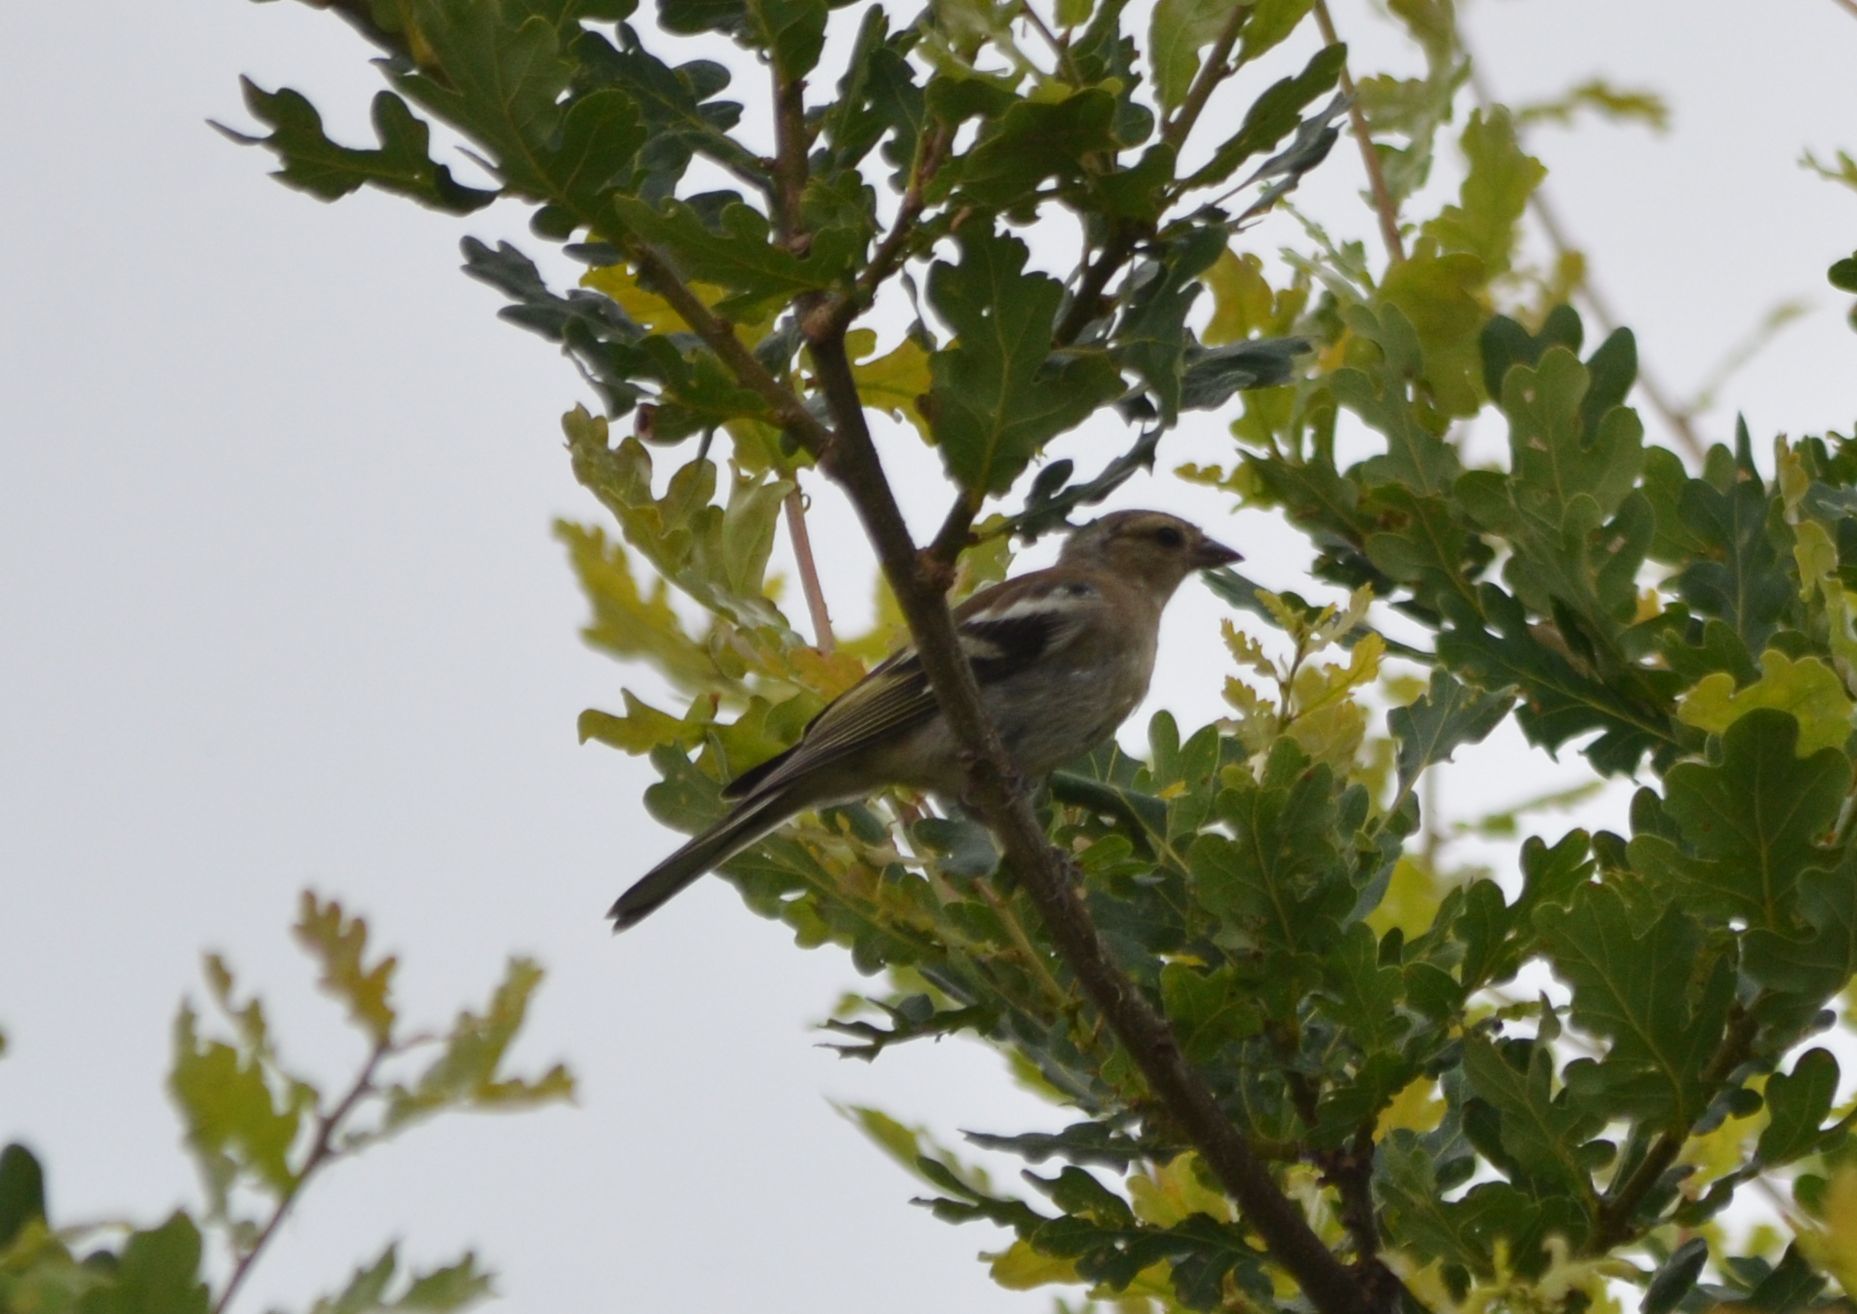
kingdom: Animalia
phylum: Chordata
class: Aves
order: Passeriformes
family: Fringillidae
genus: Fringilla
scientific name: Fringilla coelebs
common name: Common chaffinch
